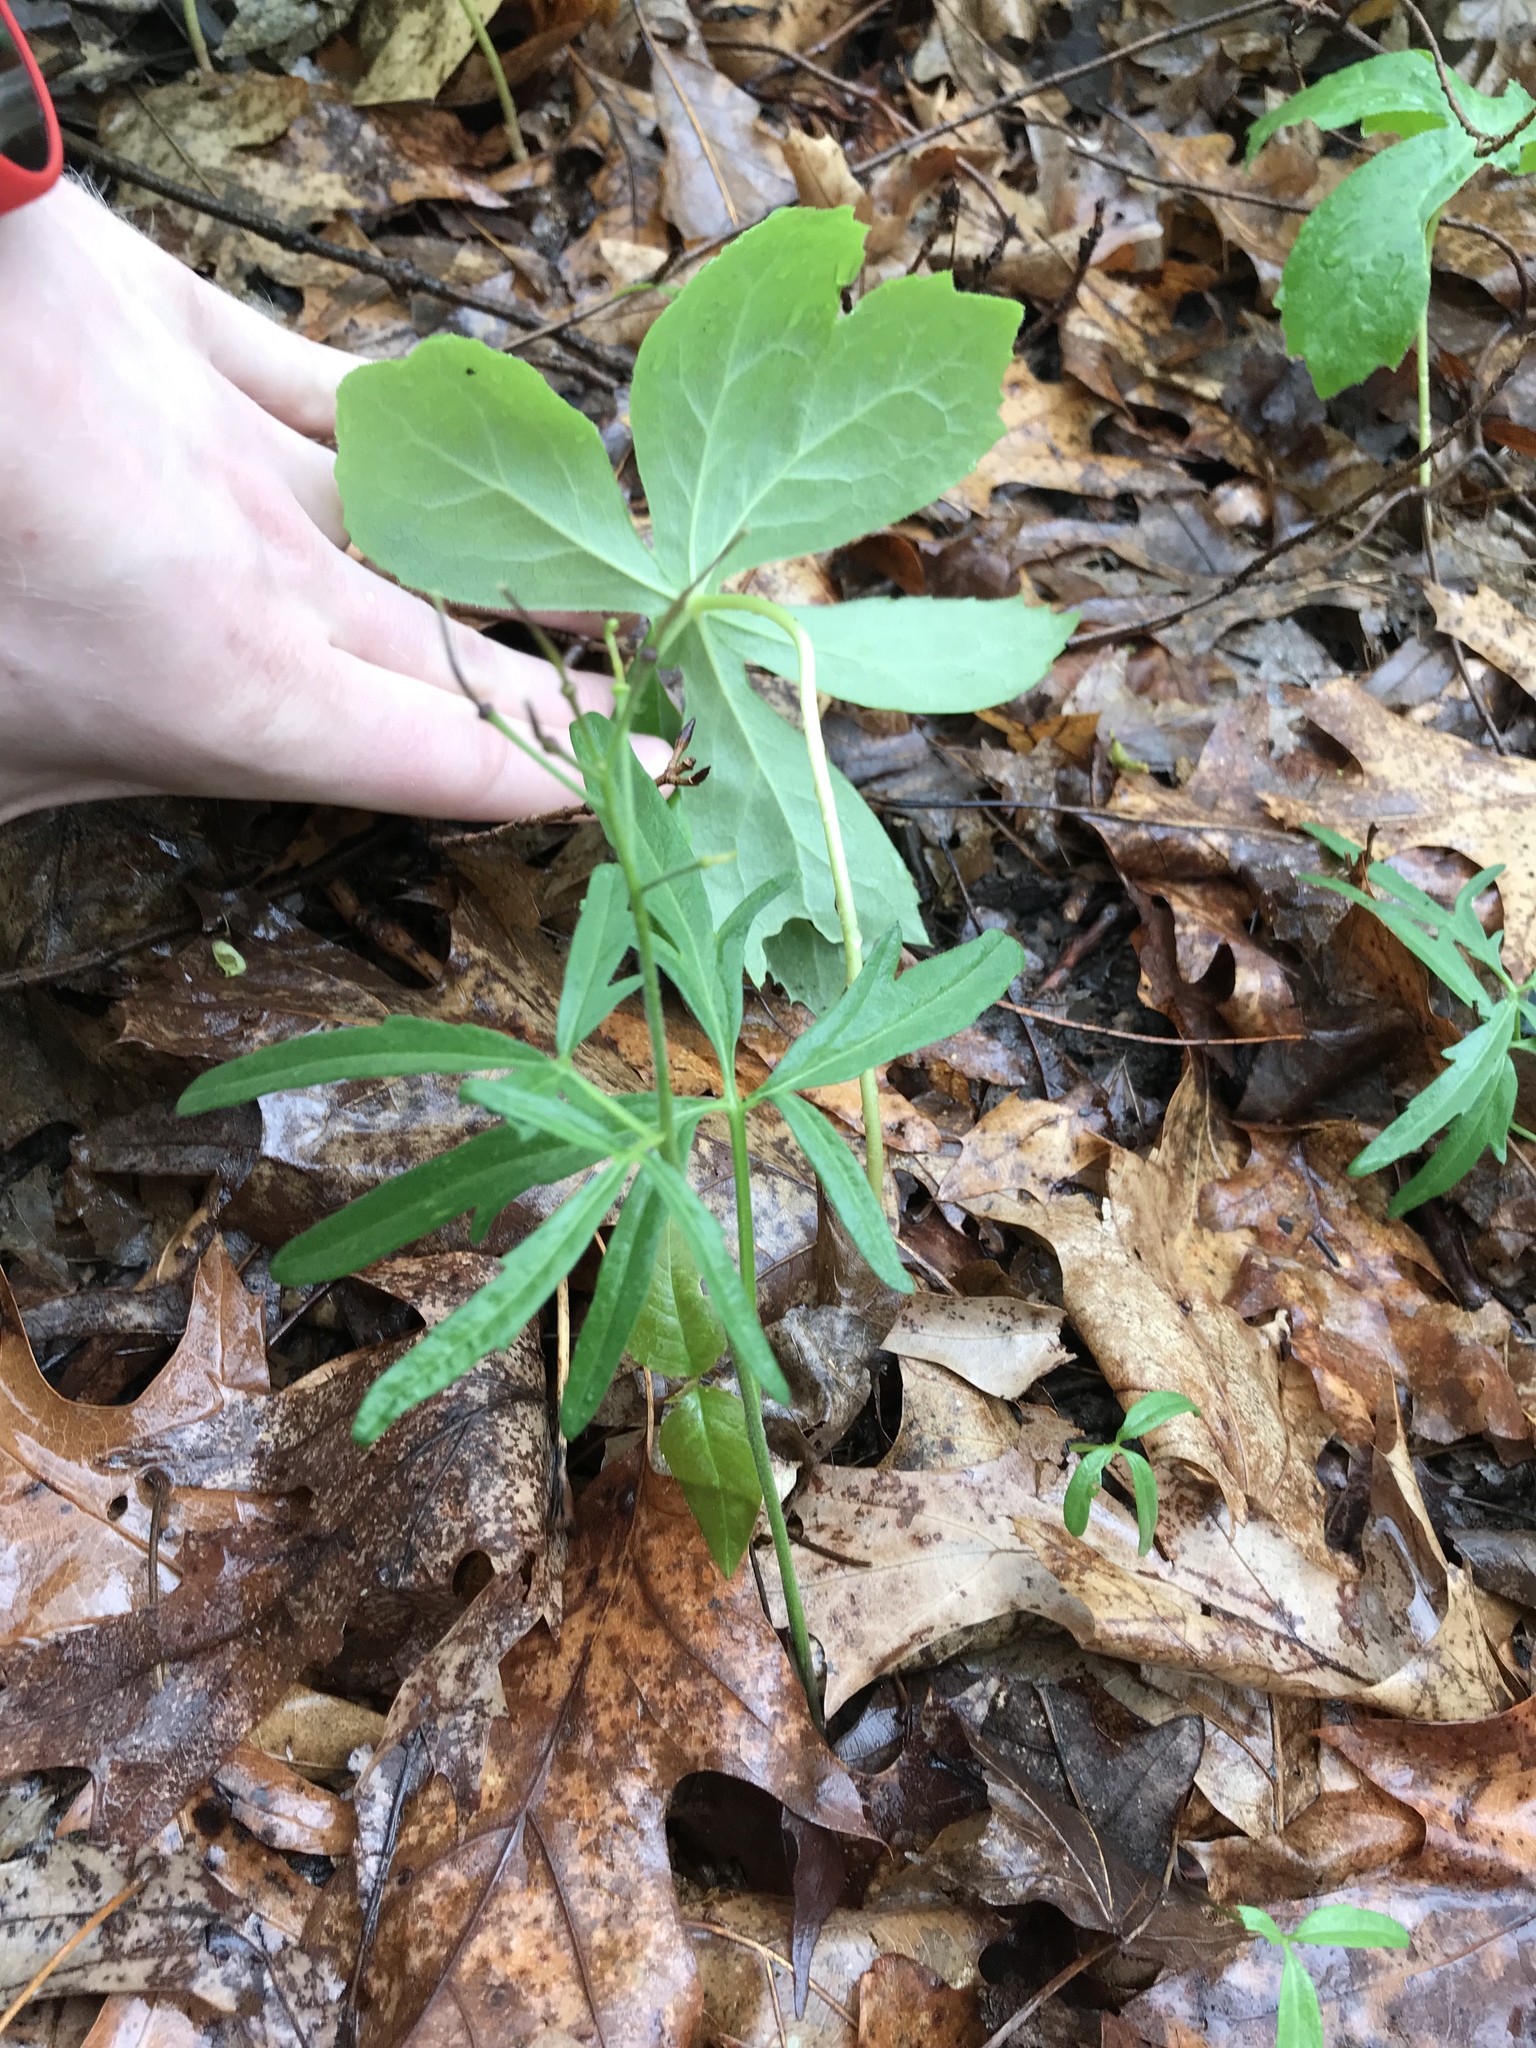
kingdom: Plantae
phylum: Tracheophyta
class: Magnoliopsida
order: Brassicales
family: Brassicaceae
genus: Cardamine
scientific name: Cardamine concatenata
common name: Cut-leaf toothcup
